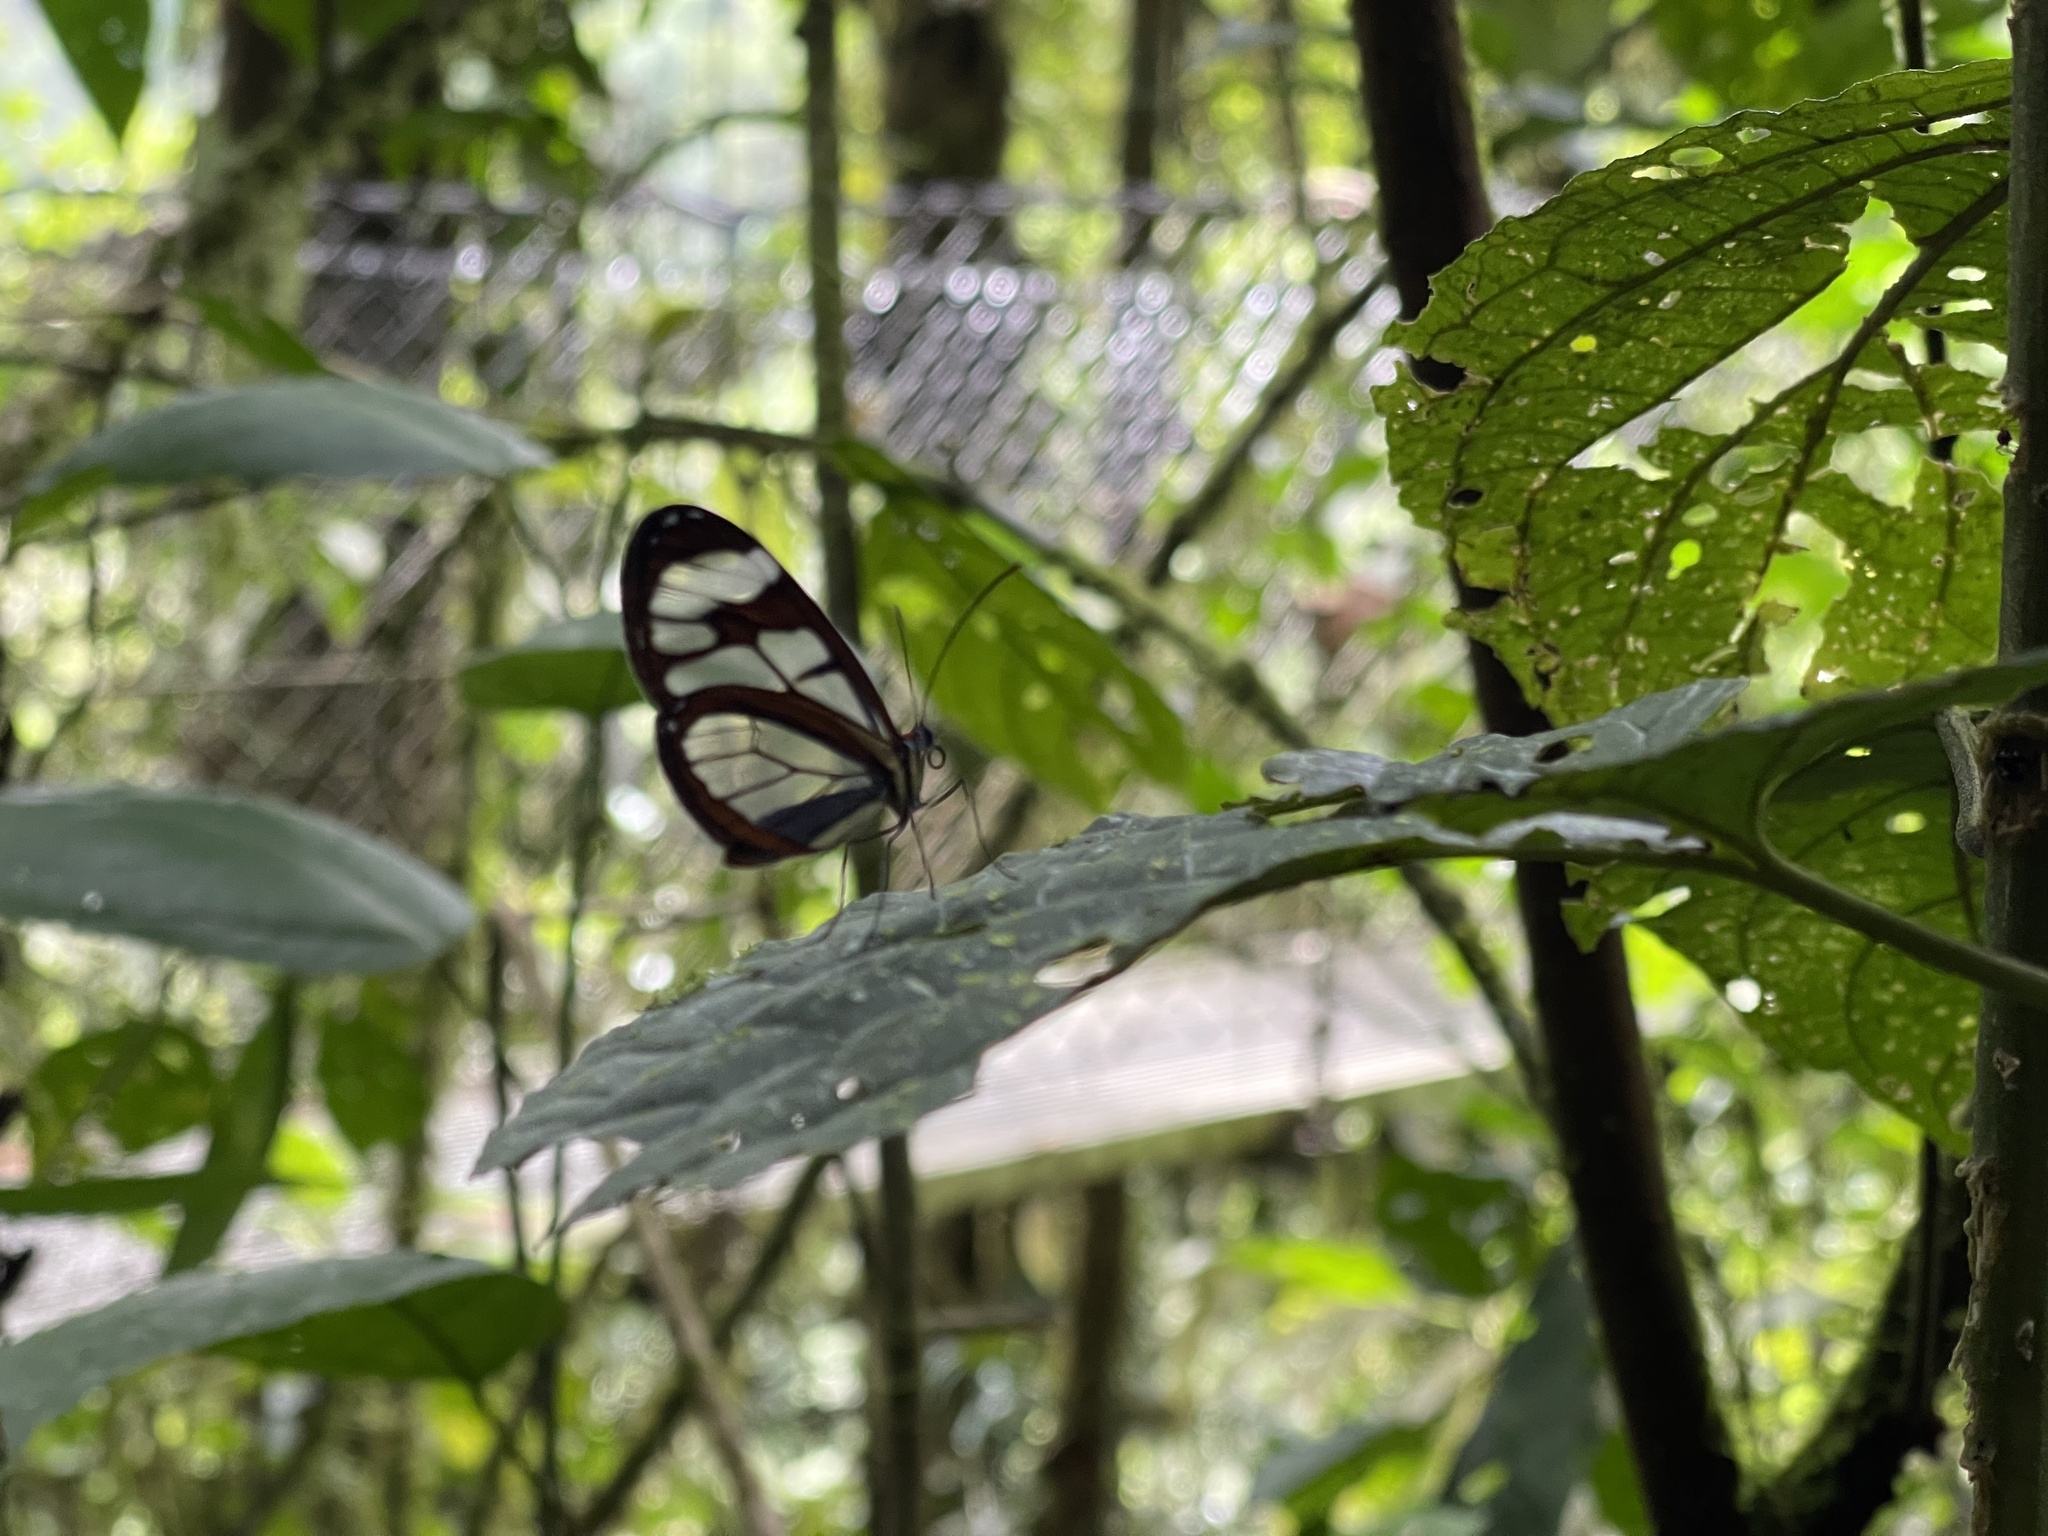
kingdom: Animalia
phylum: Arthropoda
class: Insecta
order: Lepidoptera
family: Nymphalidae
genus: Ithomia
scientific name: Ithomia diasia
